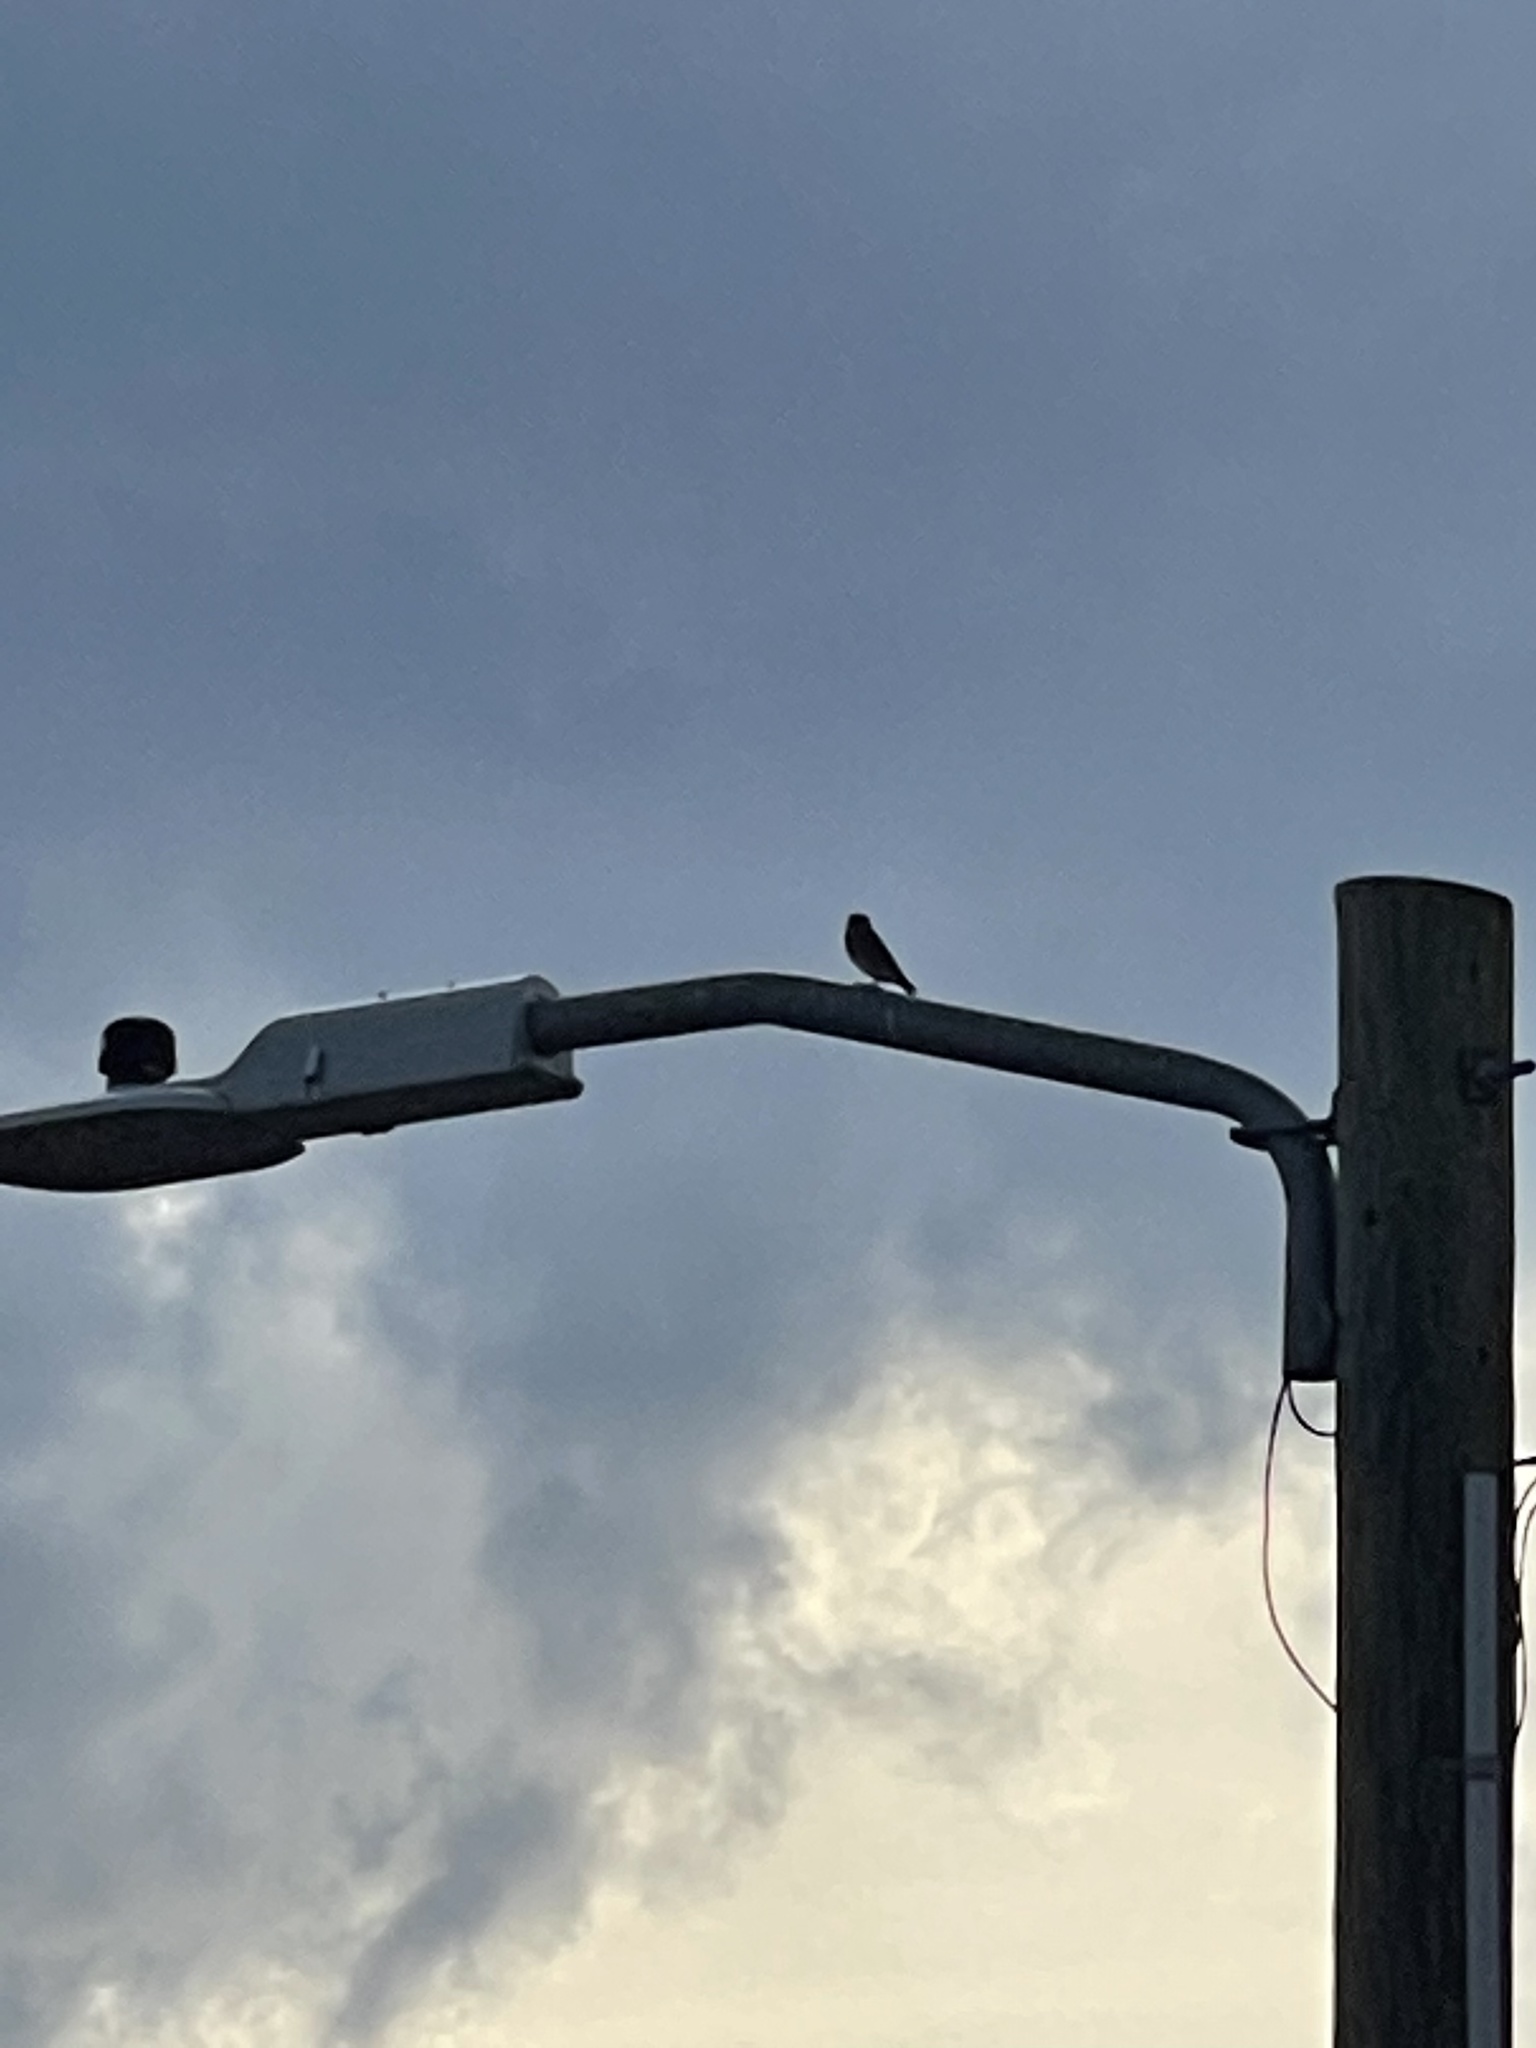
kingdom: Animalia
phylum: Chordata
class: Aves
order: Passeriformes
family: Turdidae
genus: Sialia
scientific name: Sialia sialis
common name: Eastern bluebird
